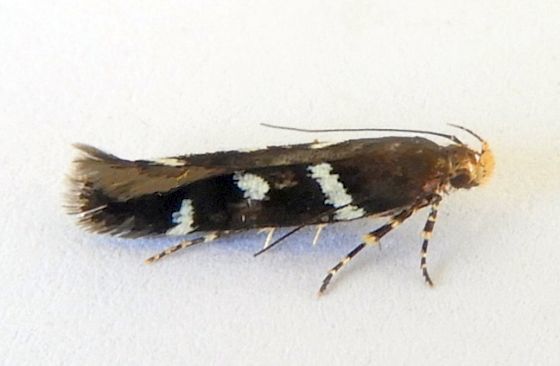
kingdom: Animalia
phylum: Arthropoda
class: Insecta
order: Lepidoptera
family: Gelechiidae
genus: Chionodes
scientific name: Chionodes naevus
